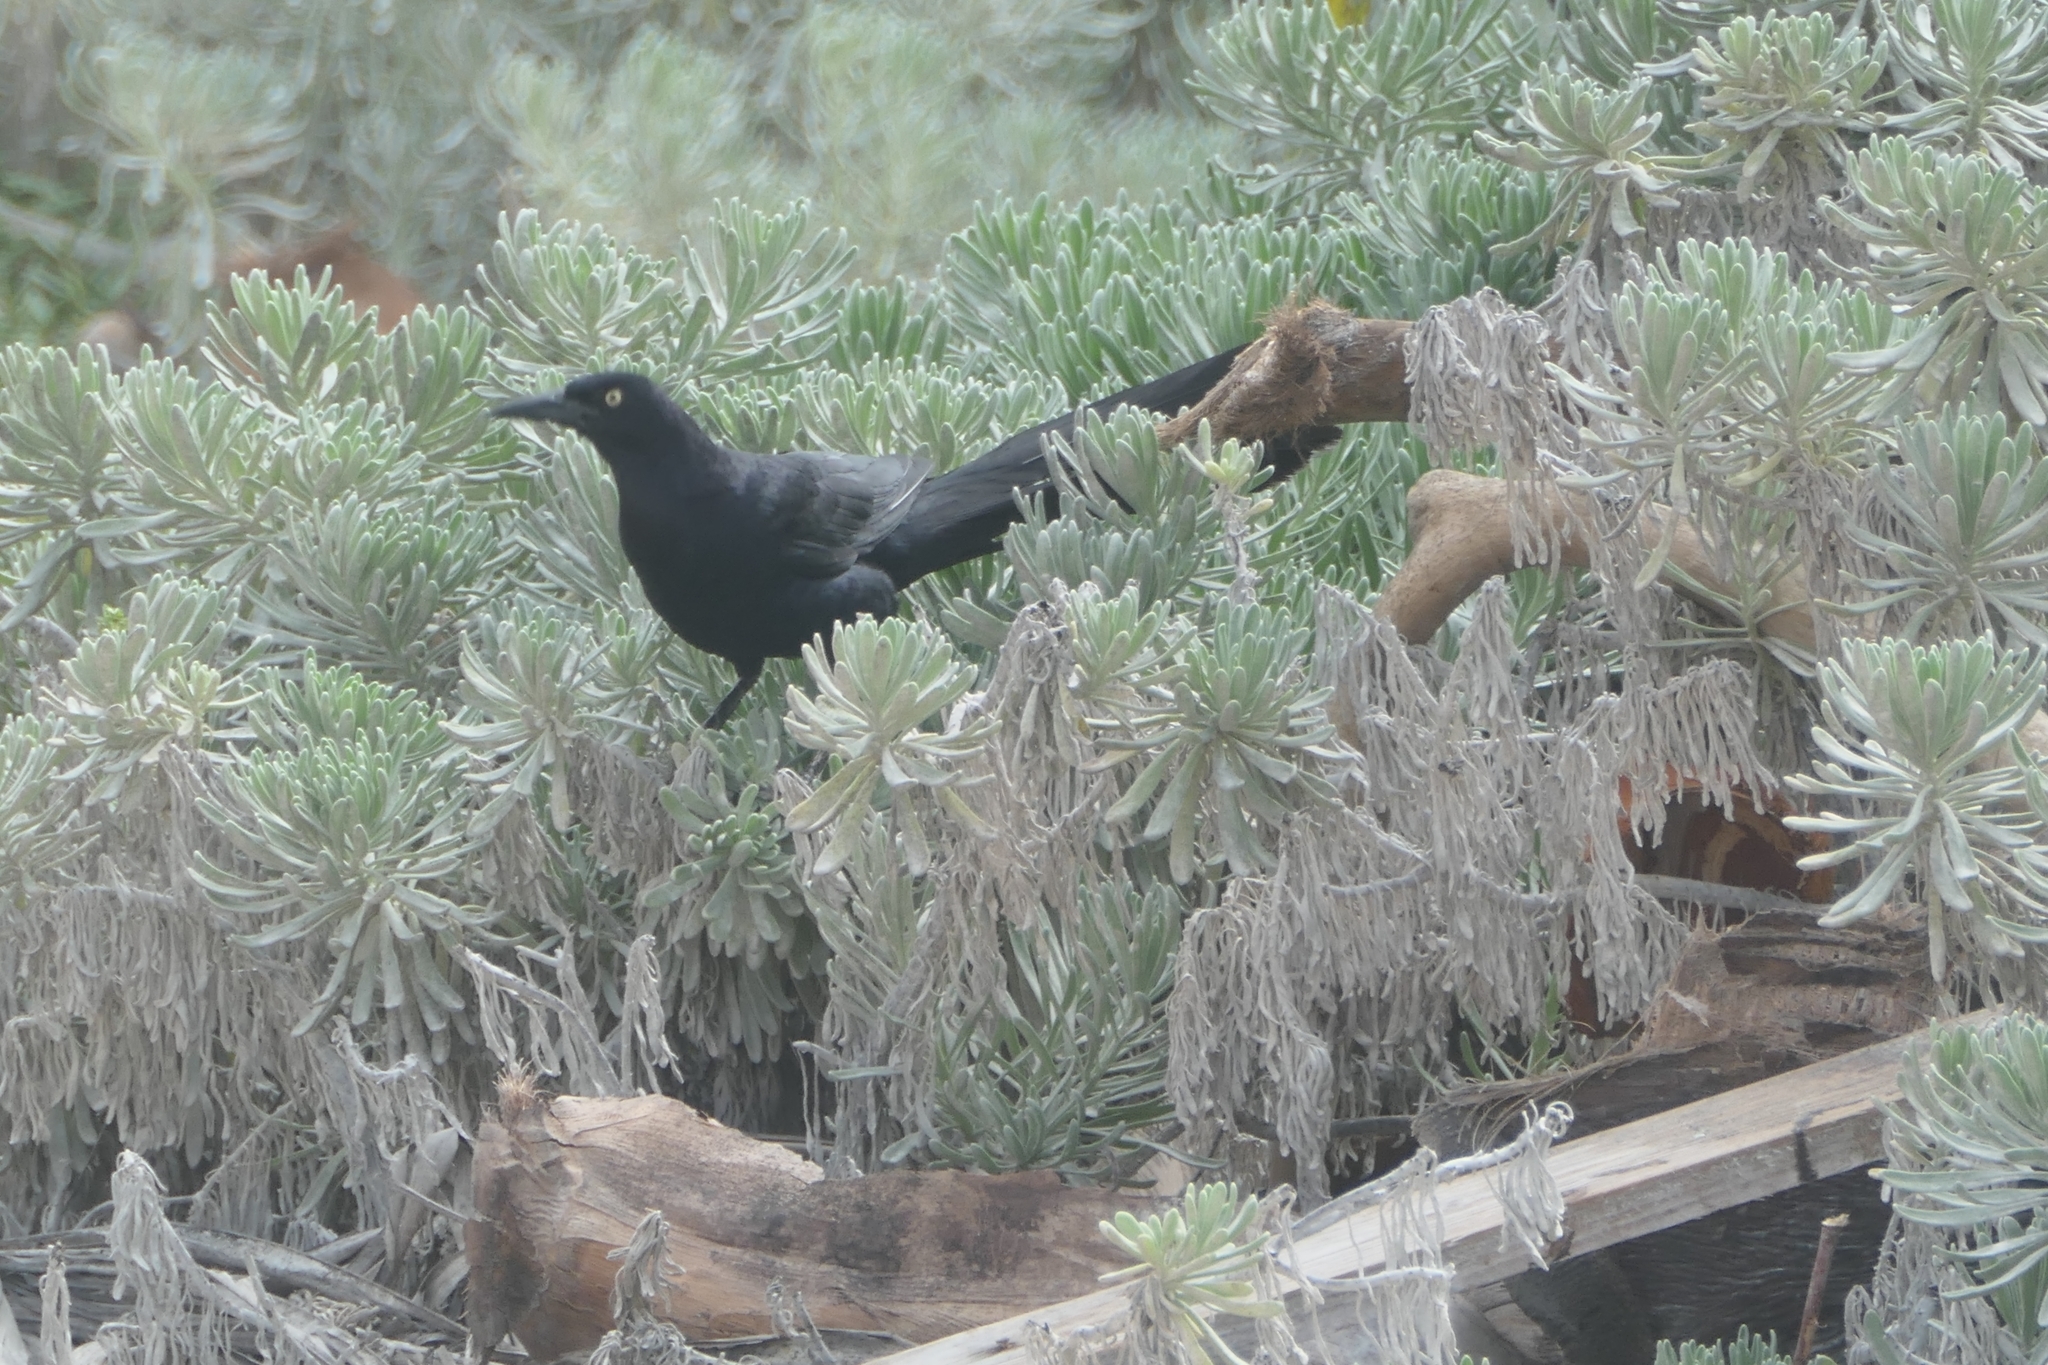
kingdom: Animalia
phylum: Chordata
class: Aves
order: Passeriformes
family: Icteridae
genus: Quiscalus
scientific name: Quiscalus mexicanus
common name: Great-tailed grackle
